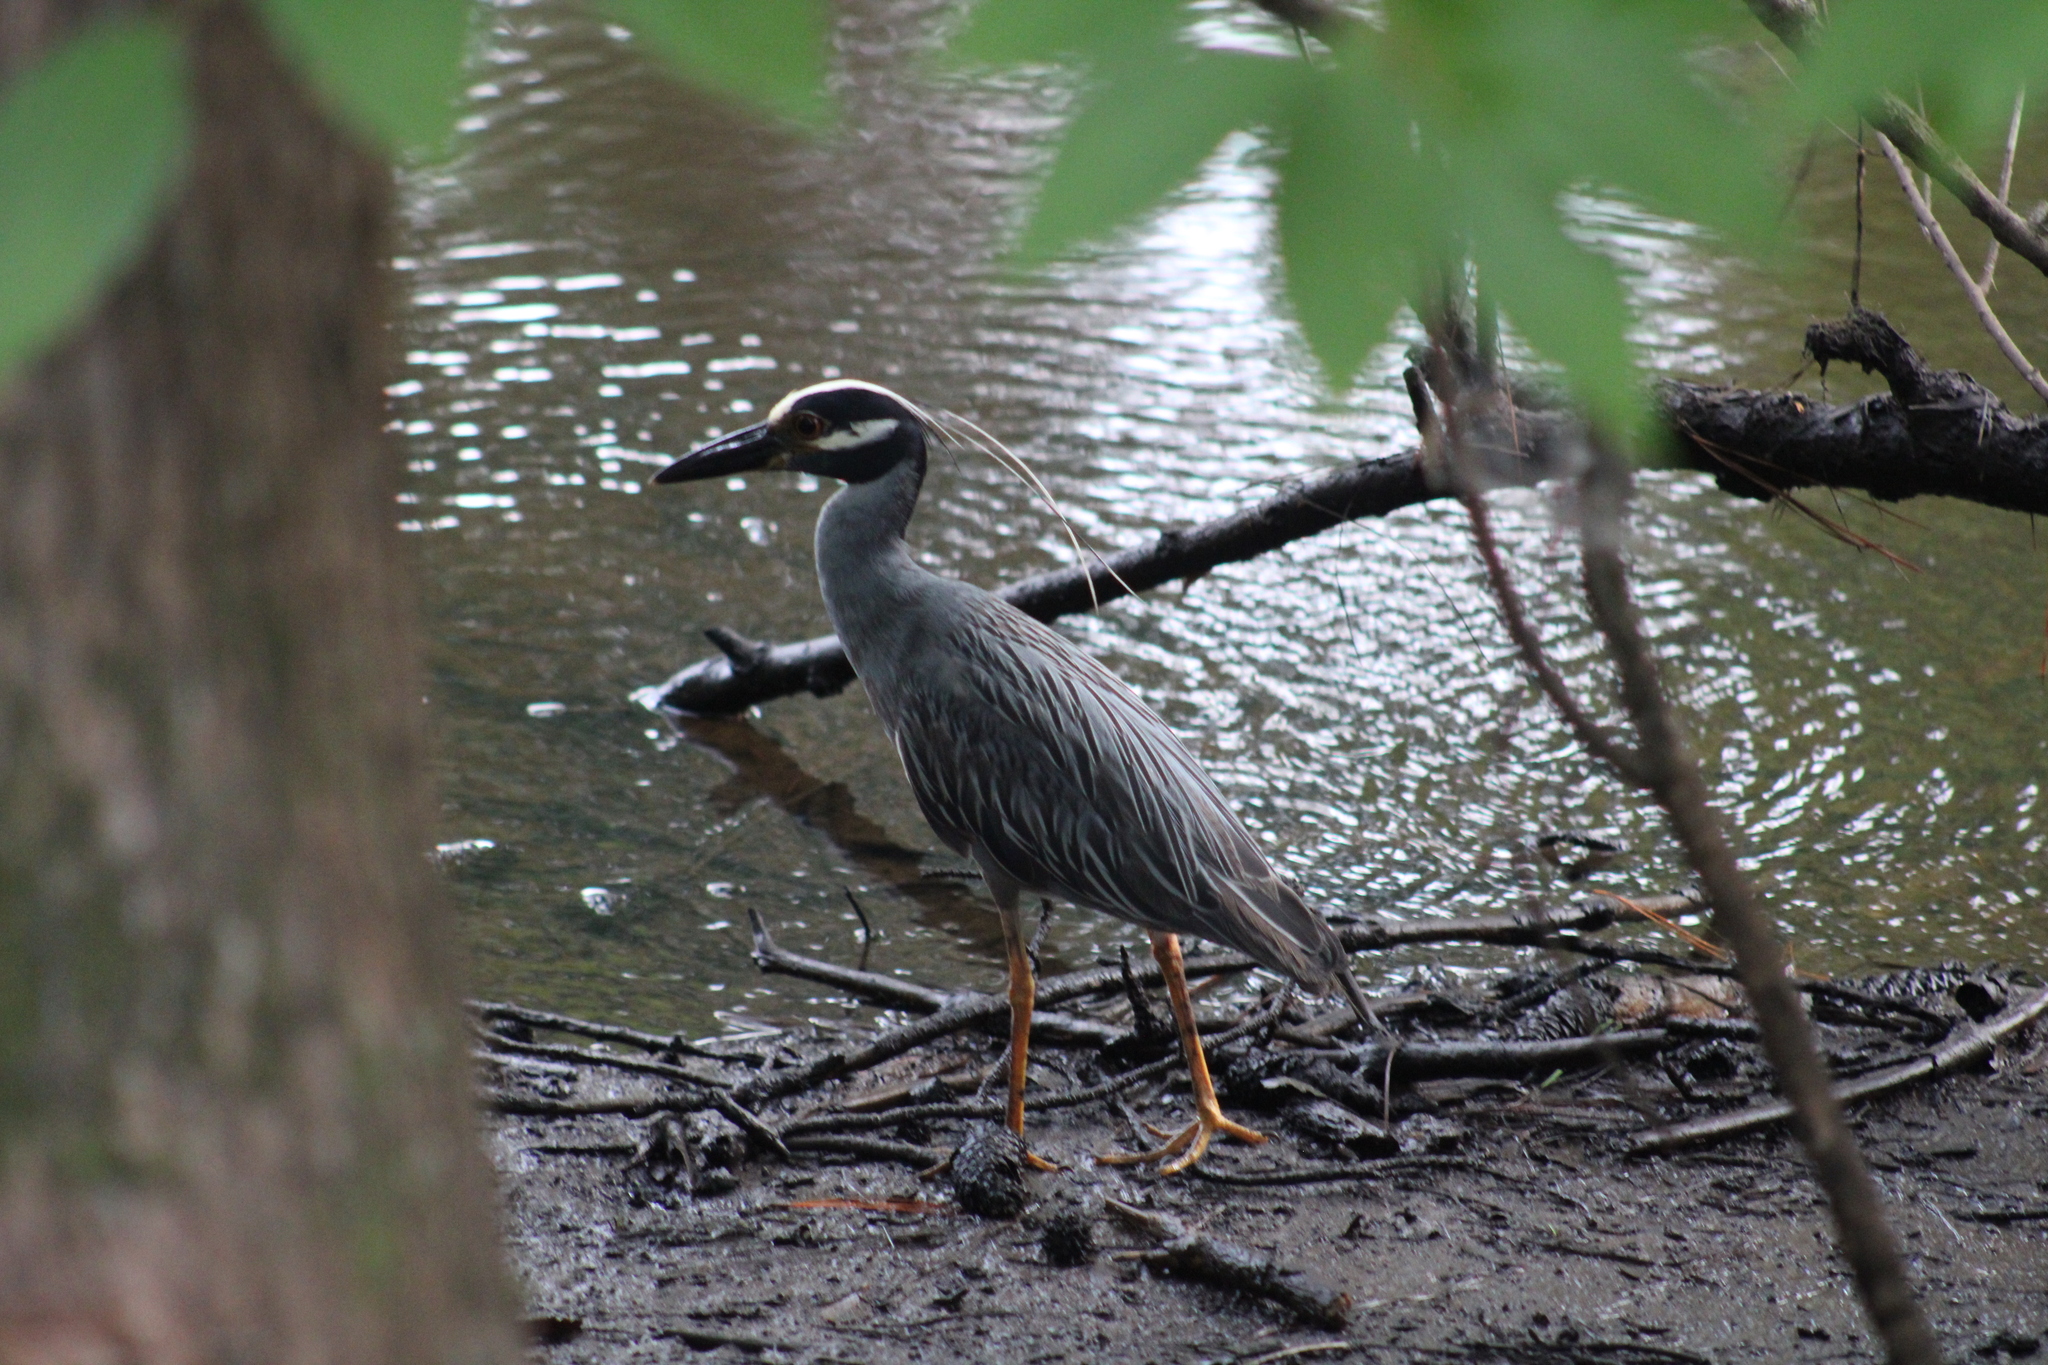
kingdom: Animalia
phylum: Chordata
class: Aves
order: Pelecaniformes
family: Ardeidae
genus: Nyctanassa
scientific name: Nyctanassa violacea
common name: Yellow-crowned night heron
